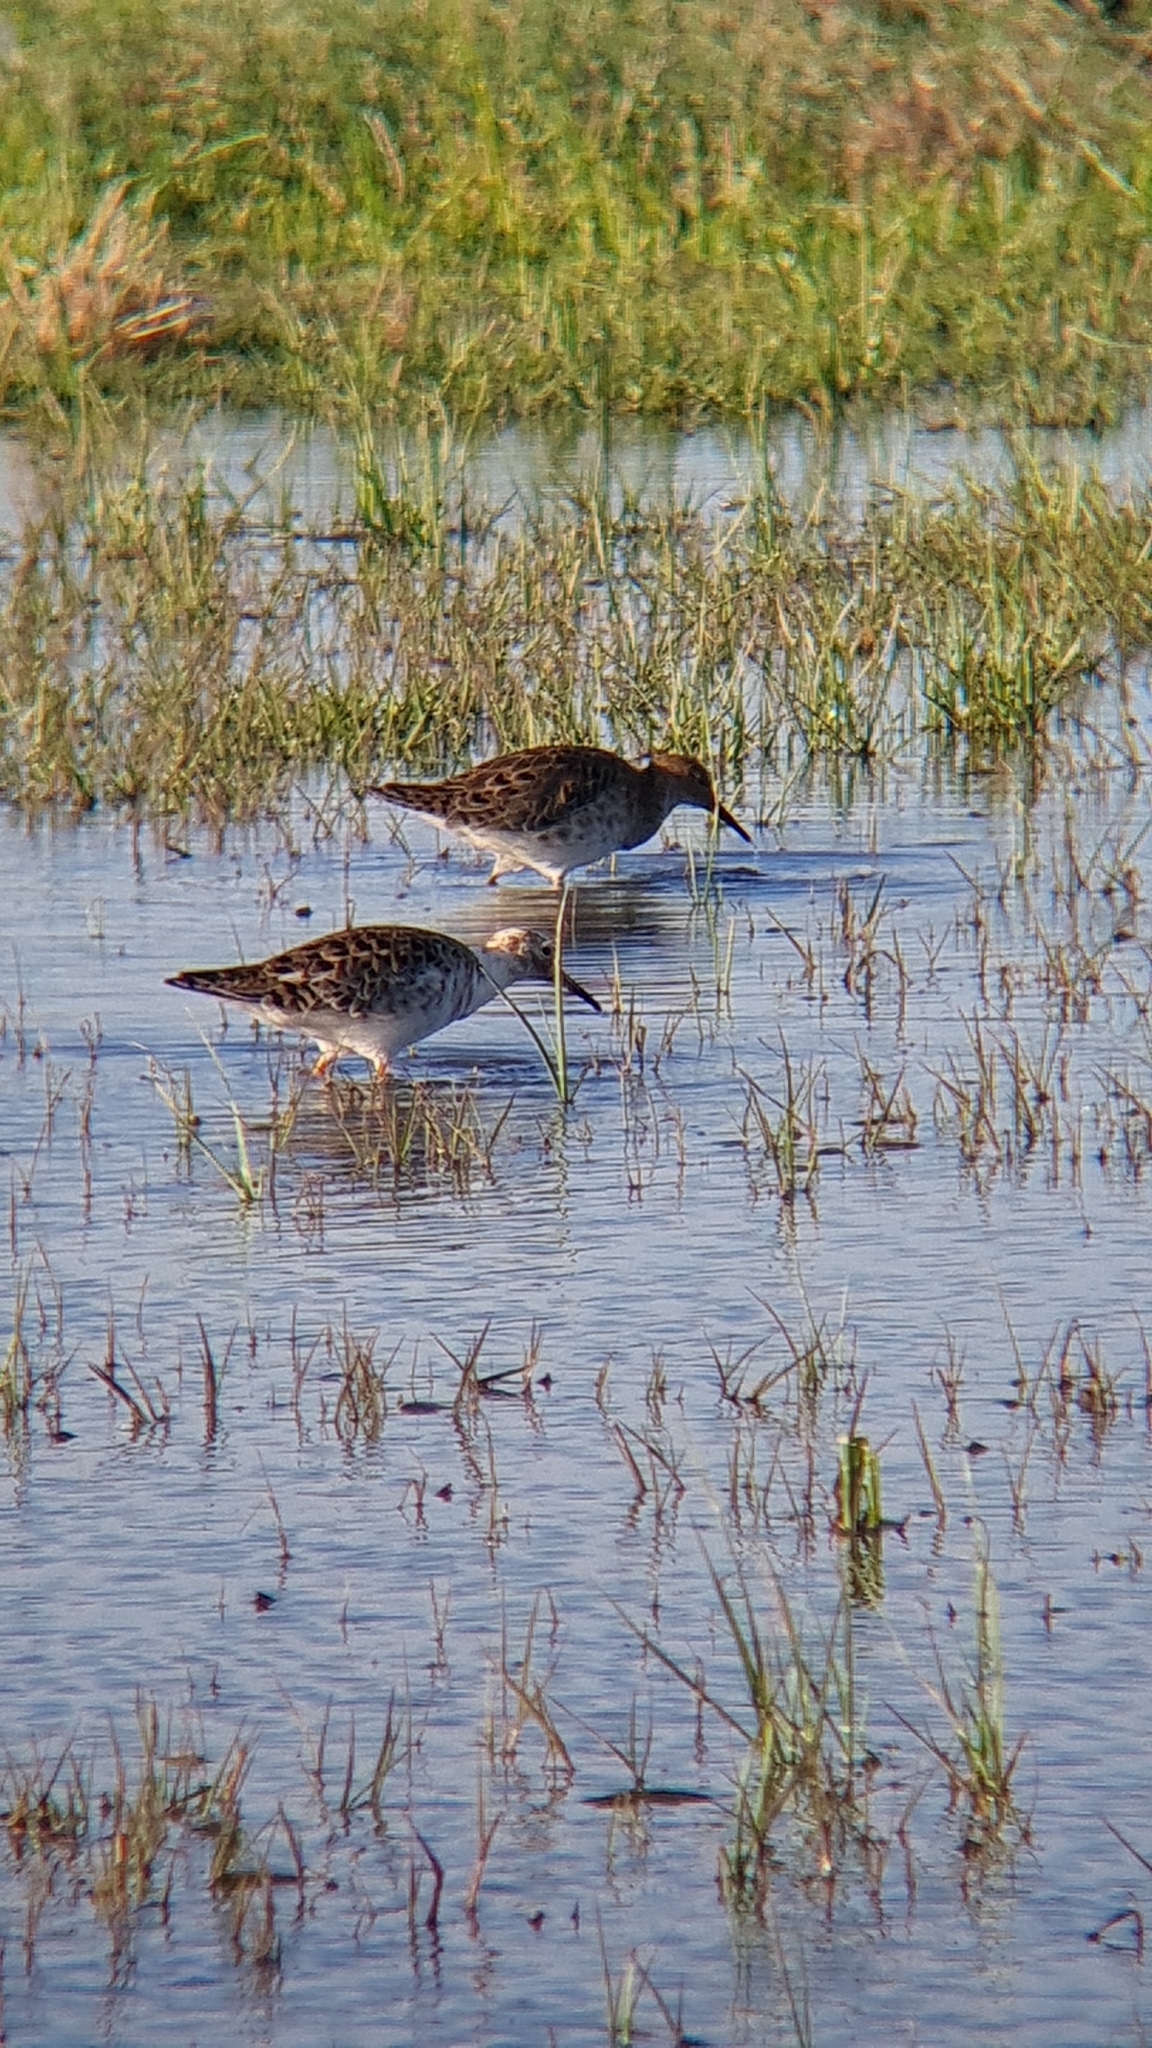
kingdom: Animalia
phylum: Chordata
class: Aves
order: Charadriiformes
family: Scolopacidae
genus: Calidris
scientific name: Calidris pugnax
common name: Ruff
